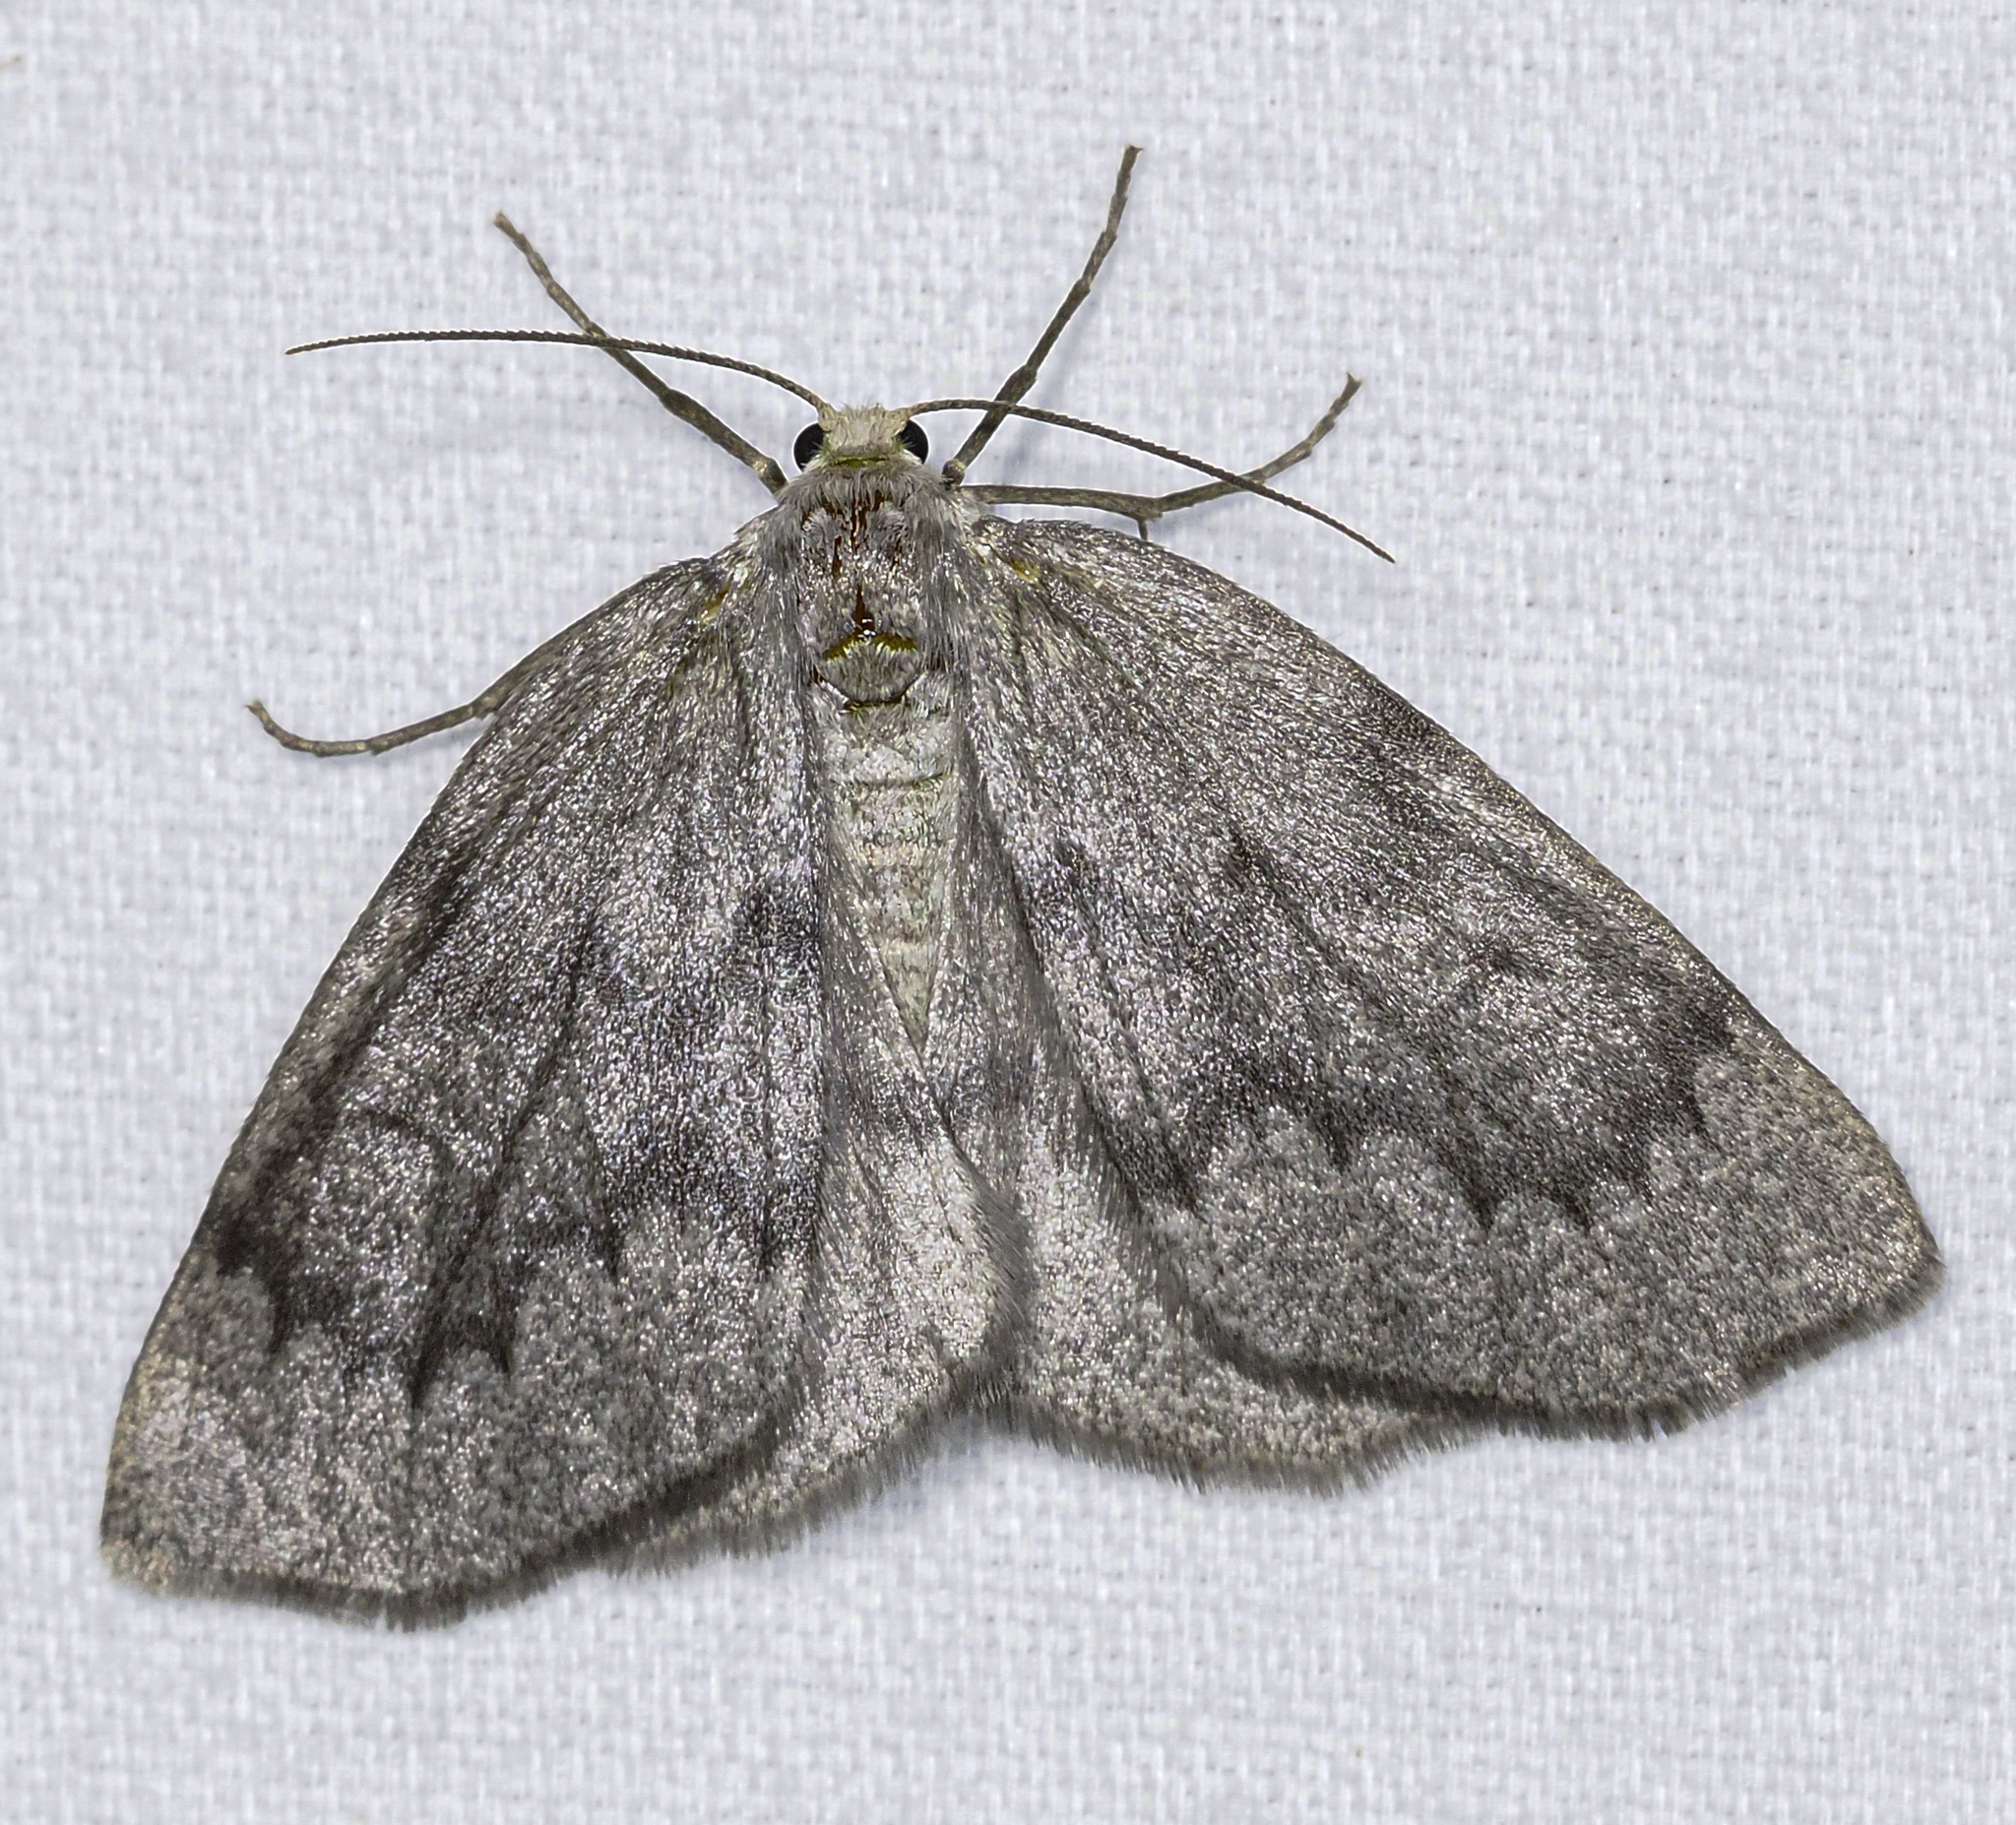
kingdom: Animalia
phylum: Arthropoda
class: Insecta
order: Lepidoptera
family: Geometridae
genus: Nepytia
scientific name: Nepytia semiclusaria
